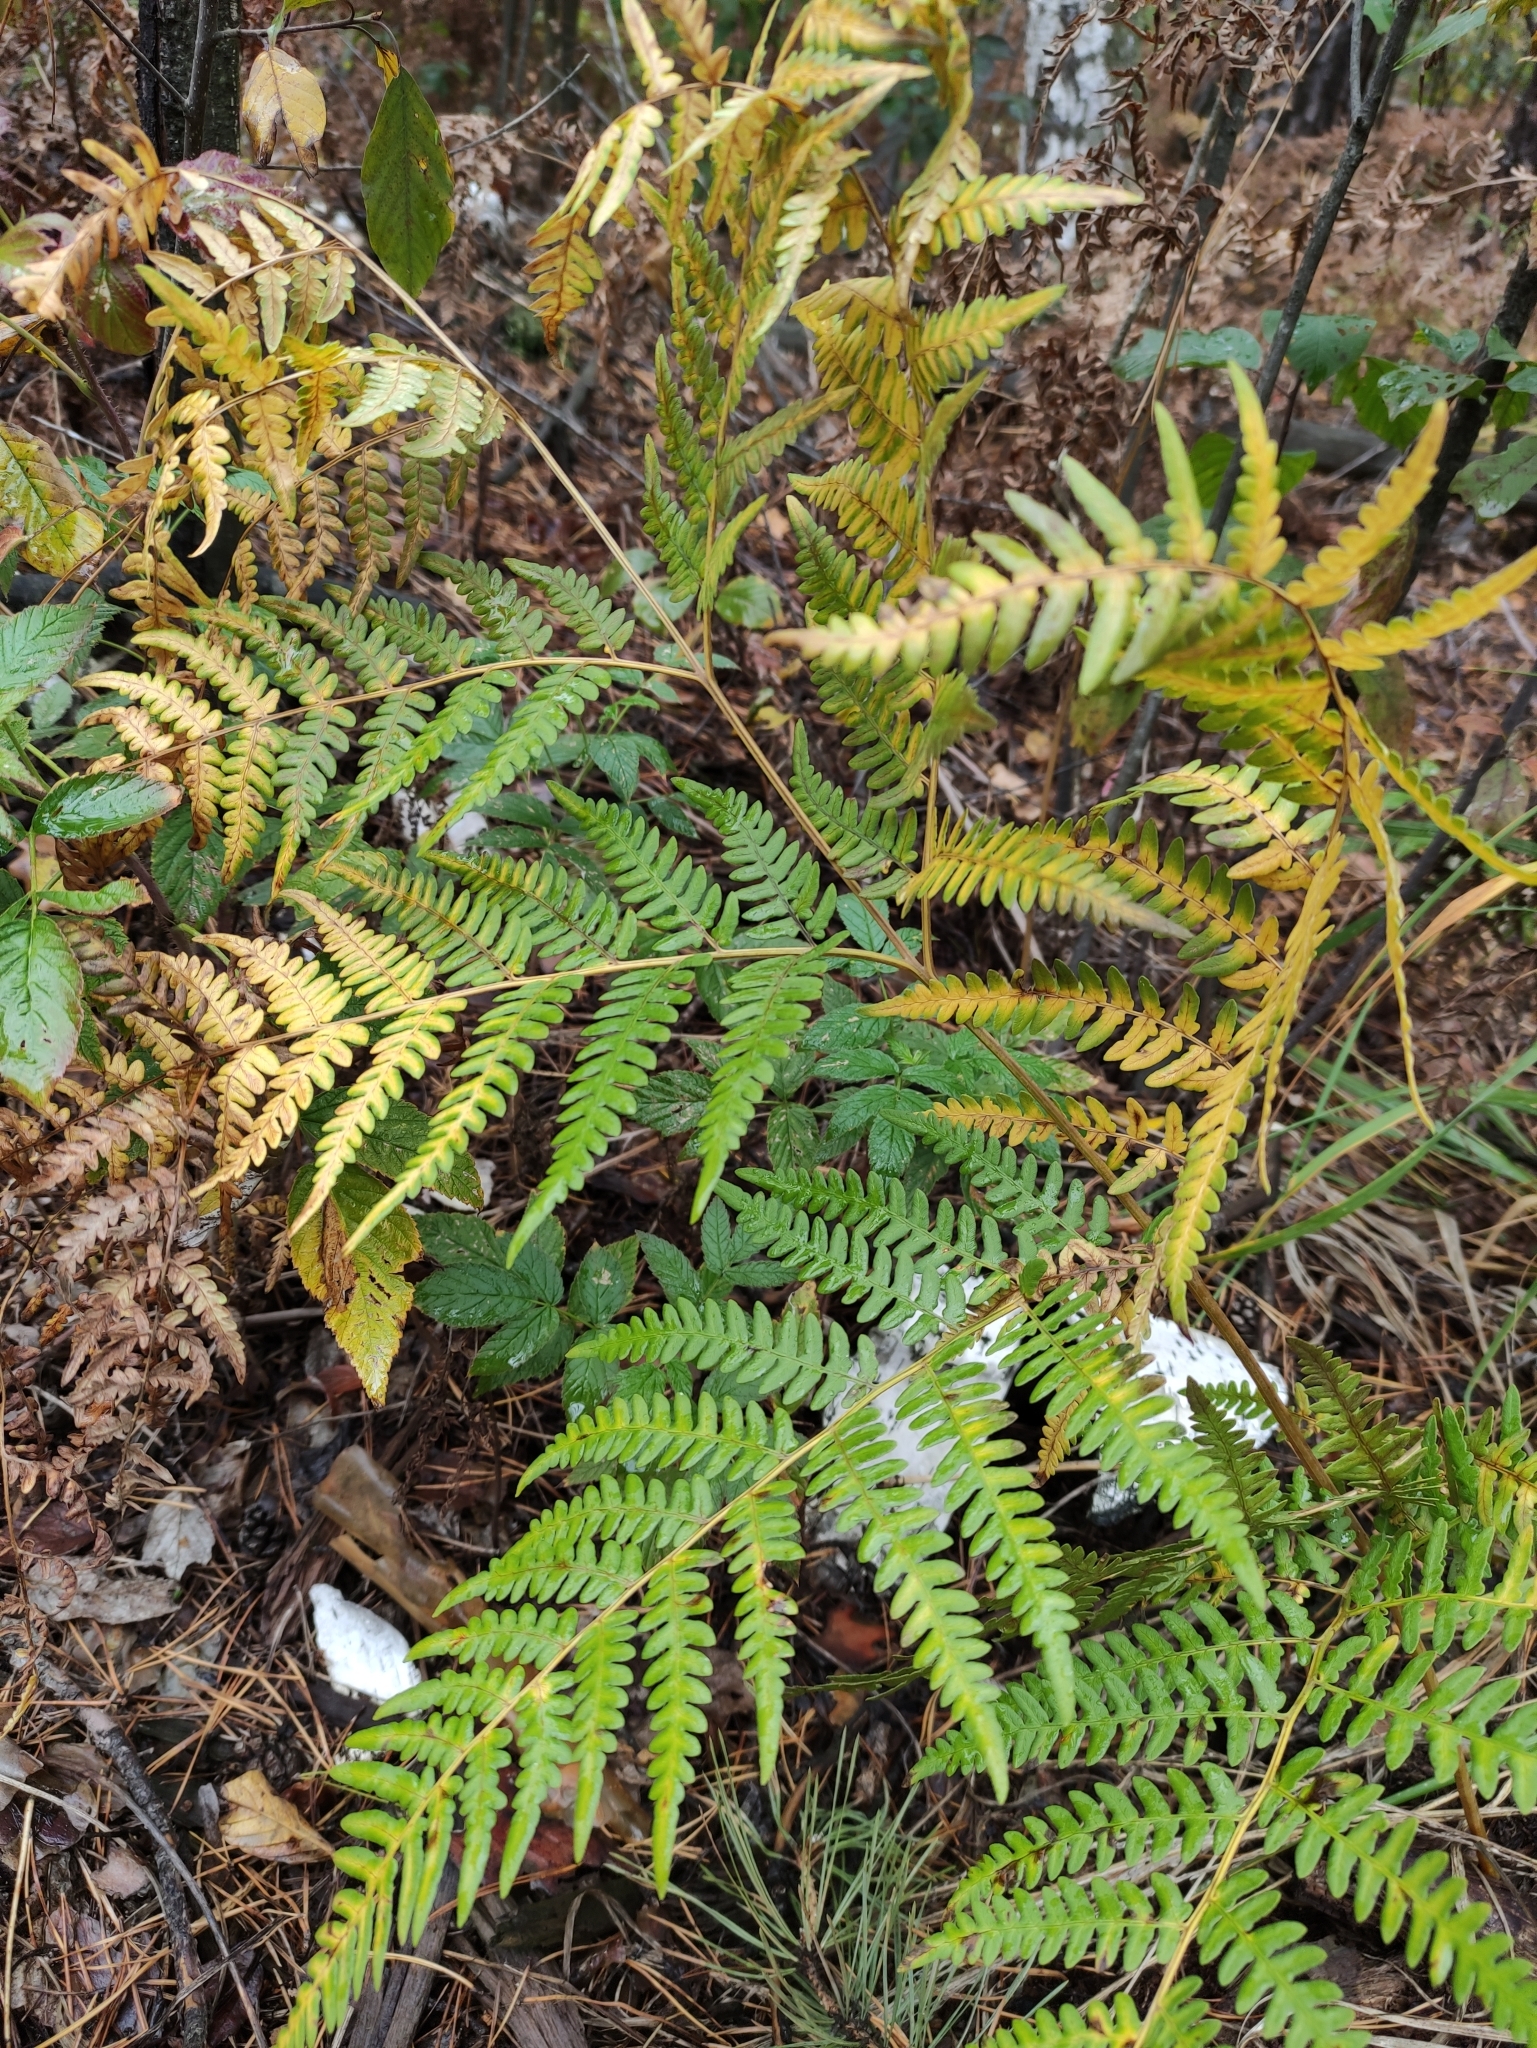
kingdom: Plantae
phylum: Tracheophyta
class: Polypodiopsida
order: Polypodiales
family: Dennstaedtiaceae
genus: Pteridium
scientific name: Pteridium aquilinum
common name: Bracken
